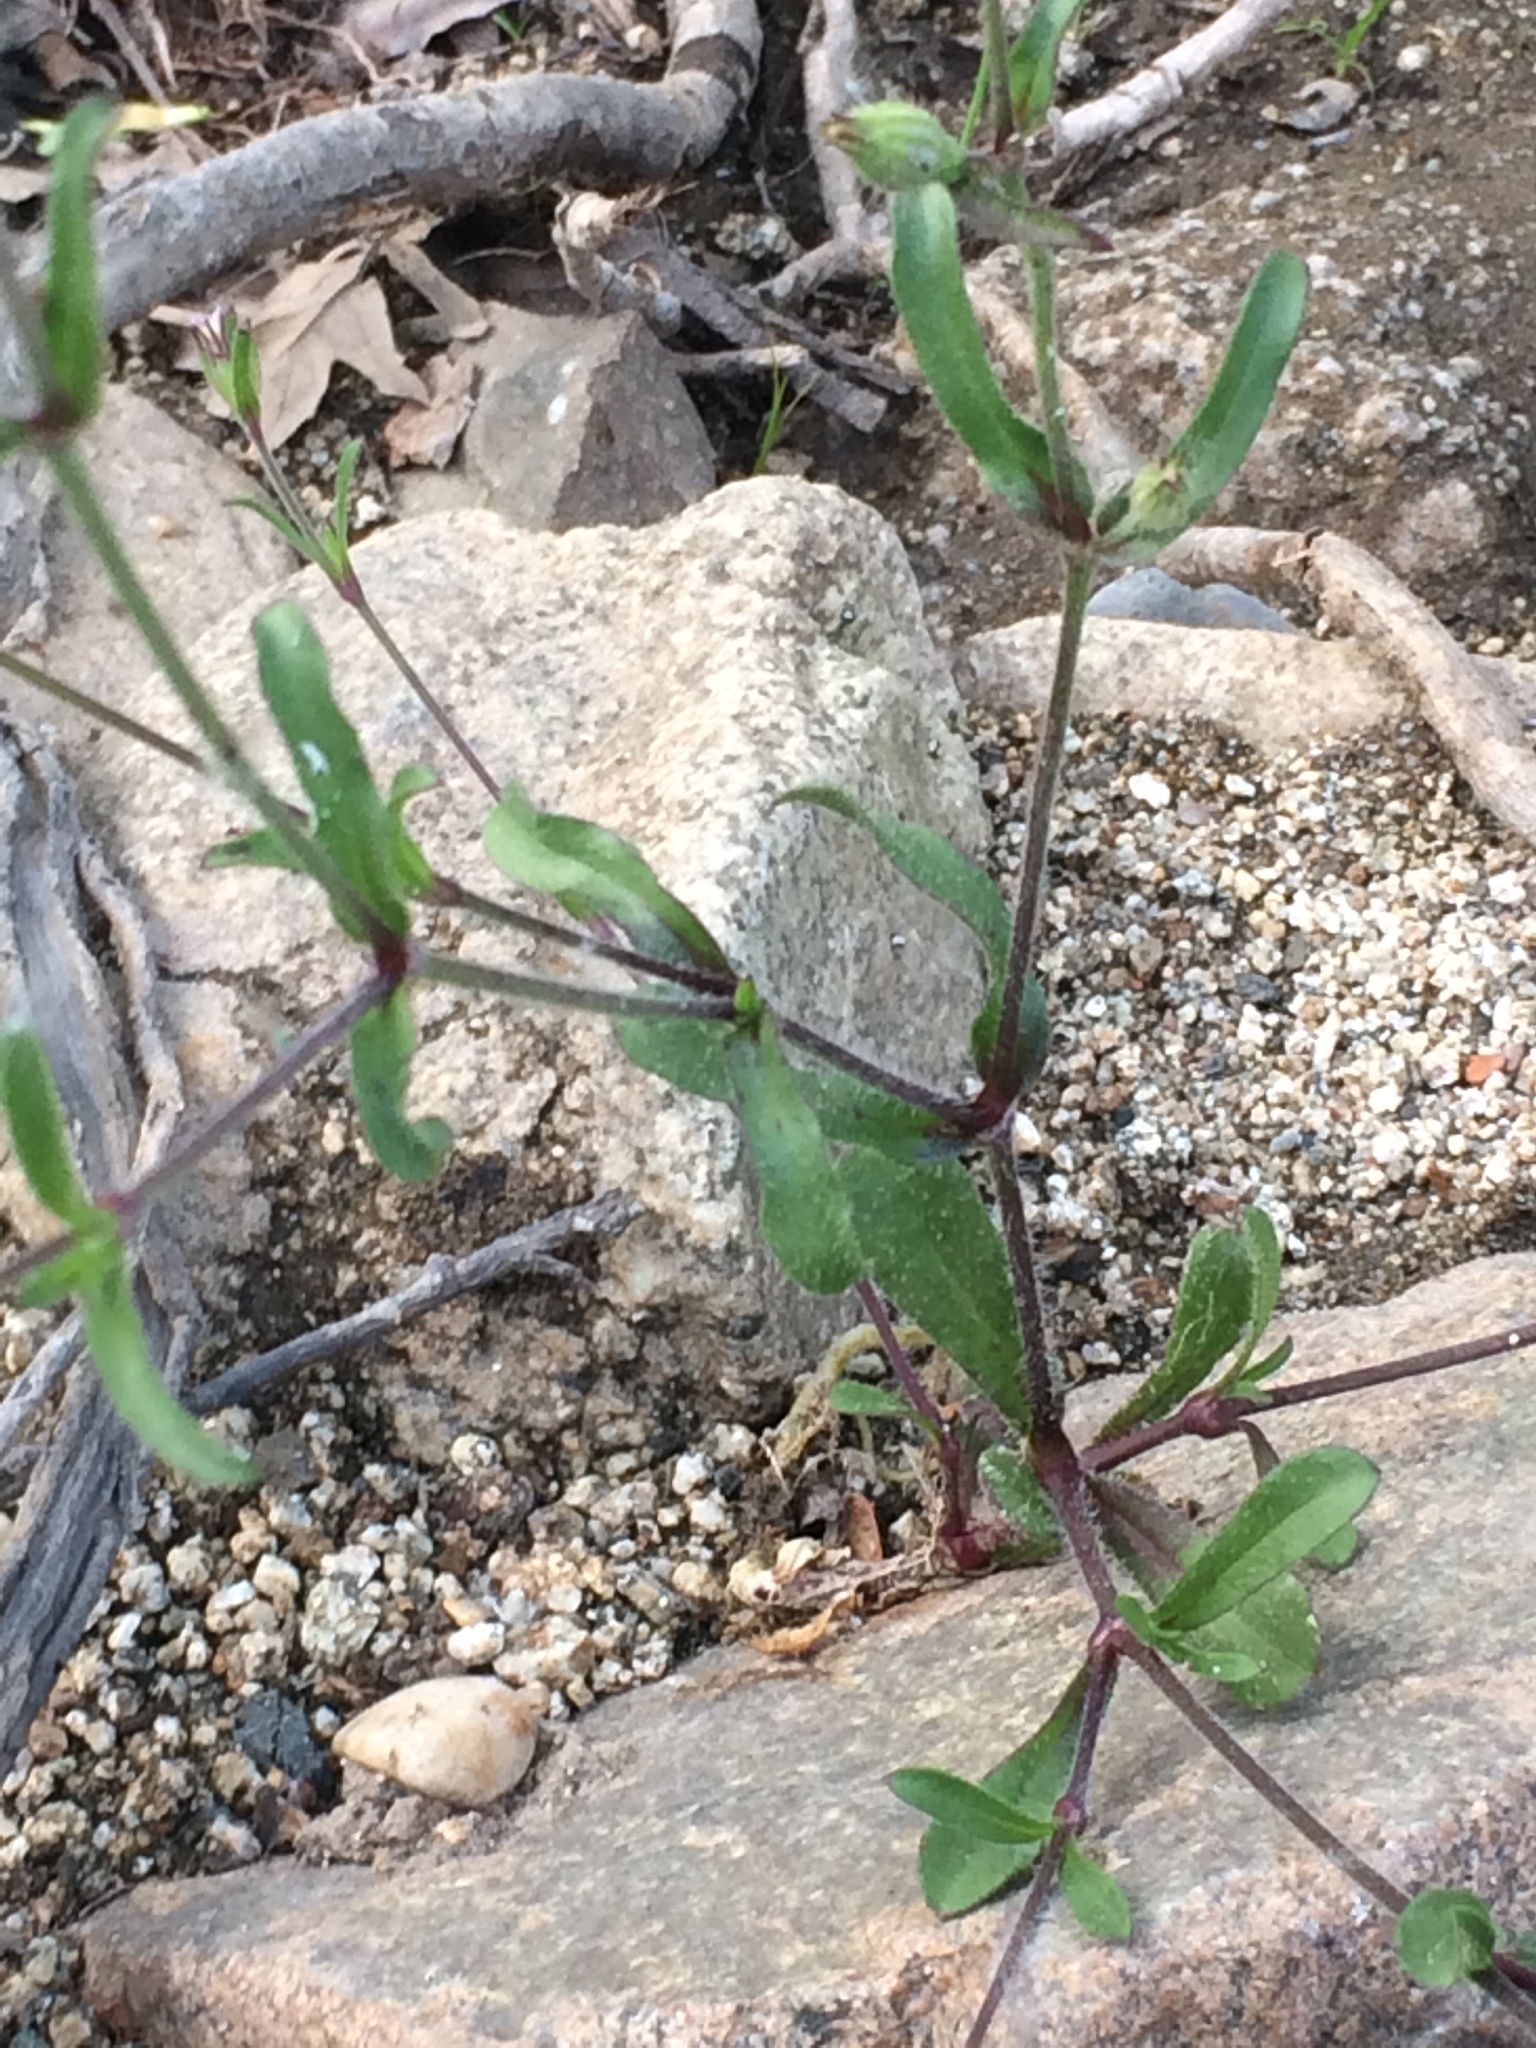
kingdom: Plantae
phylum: Tracheophyta
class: Magnoliopsida
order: Caryophyllales
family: Caryophyllaceae
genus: Silene
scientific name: Silene gallica
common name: Small-flowered catchfly
